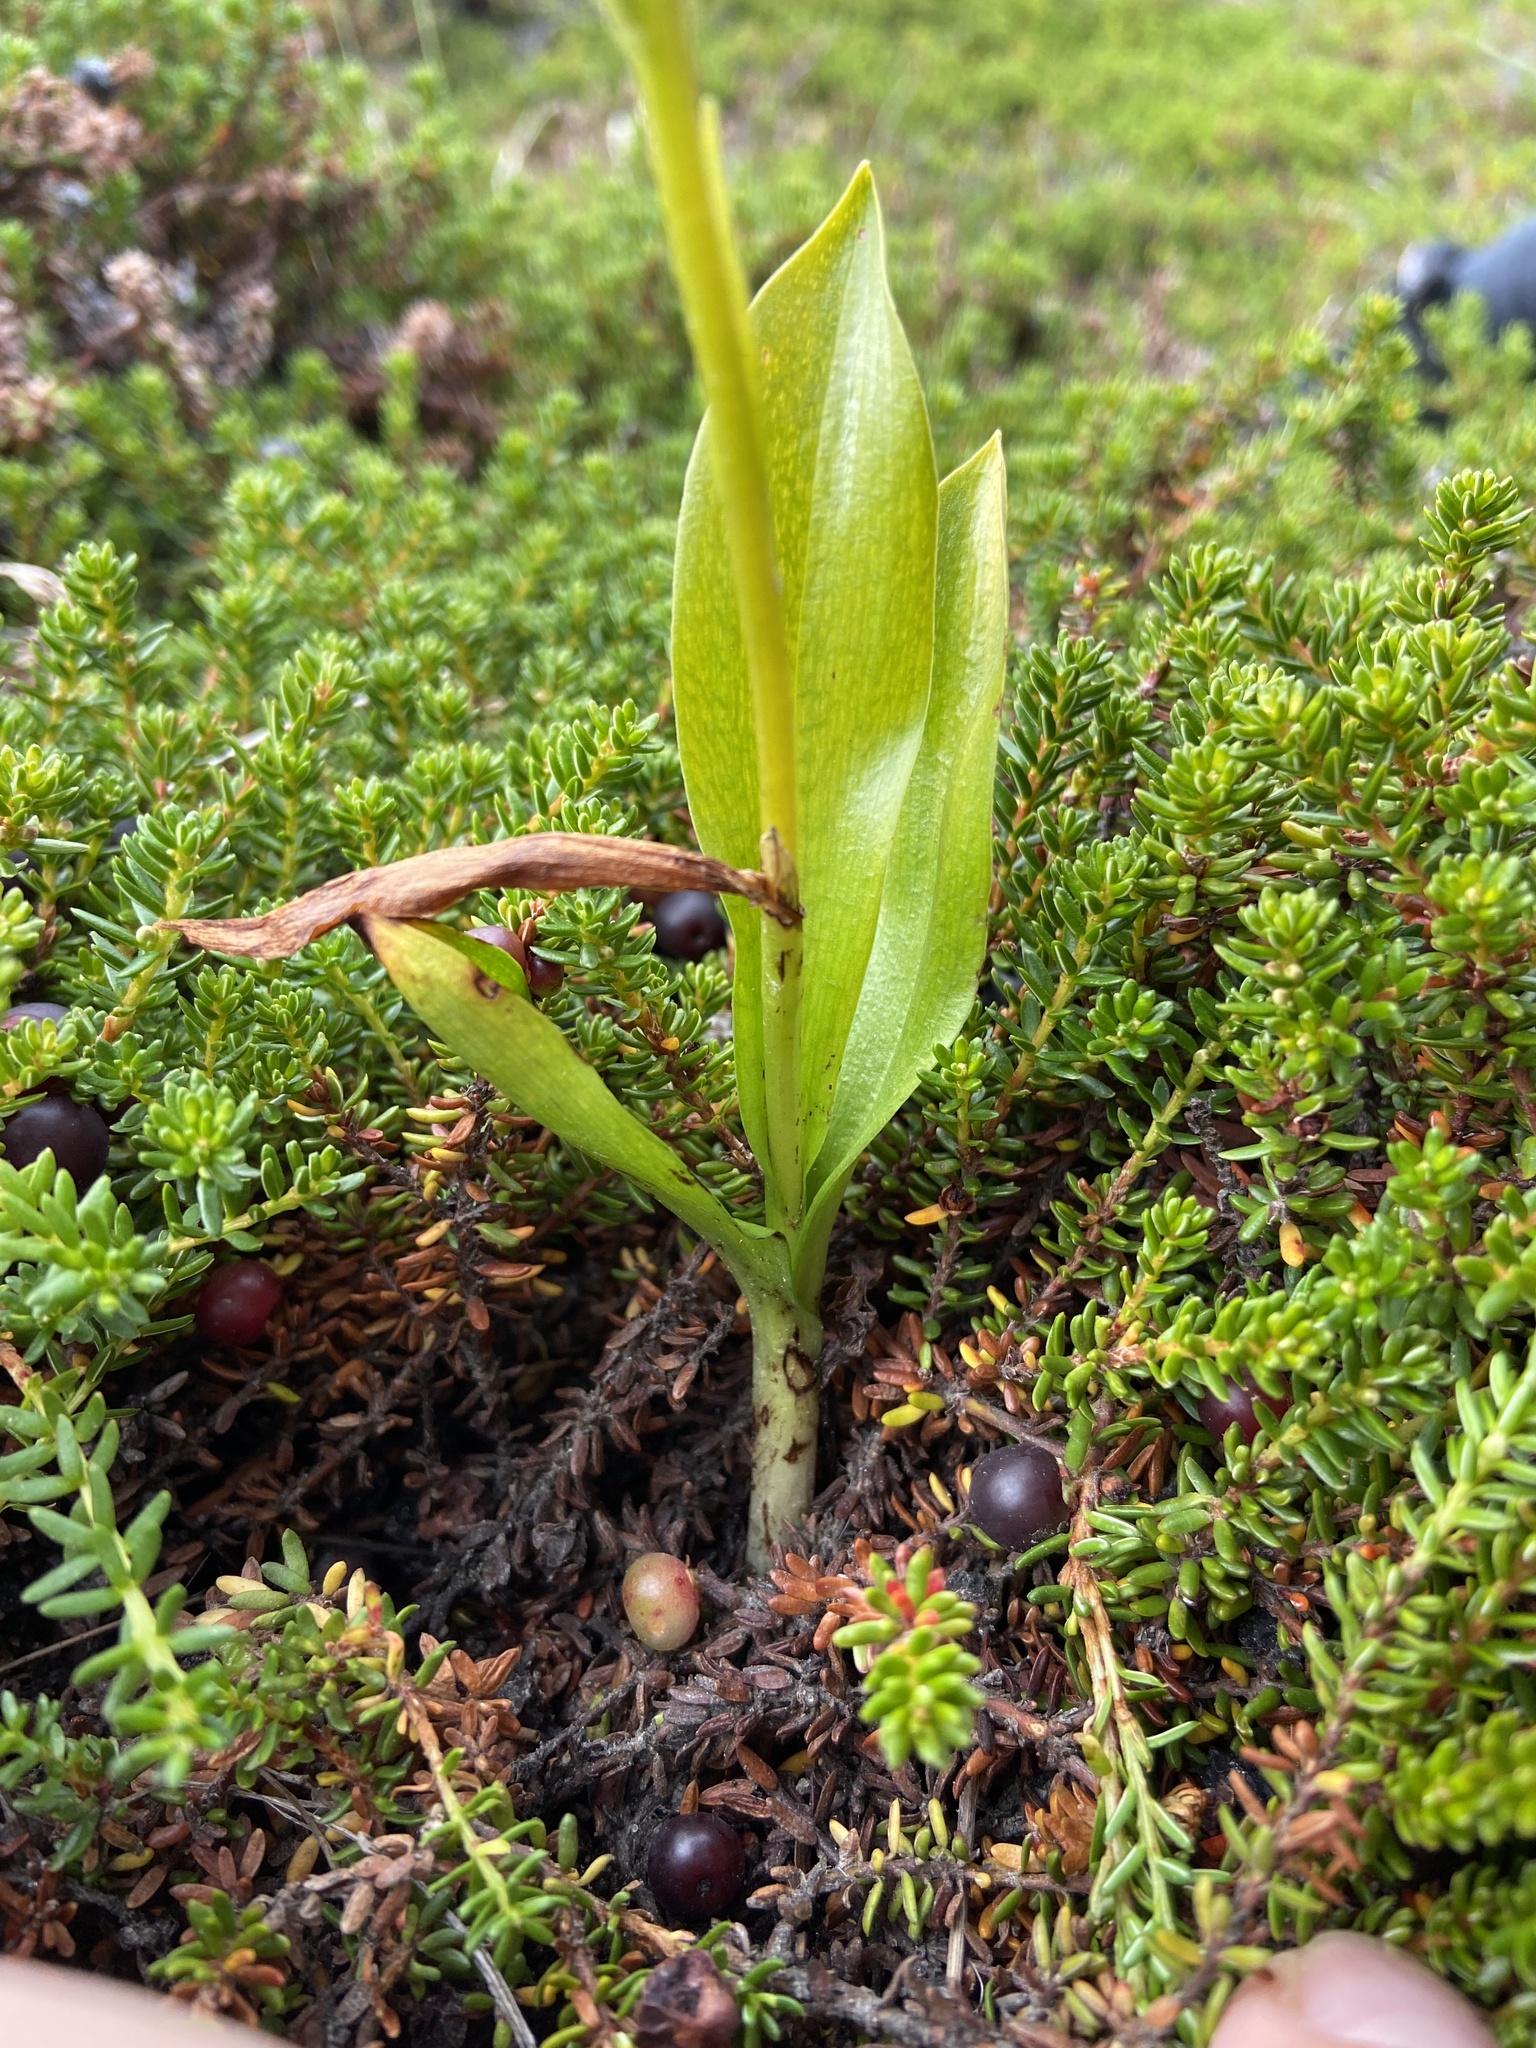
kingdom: Plantae
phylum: Tracheophyta
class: Liliopsida
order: Asparagales
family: Orchidaceae
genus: Pseudorchis
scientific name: Pseudorchis albida
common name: Small-white orchid
